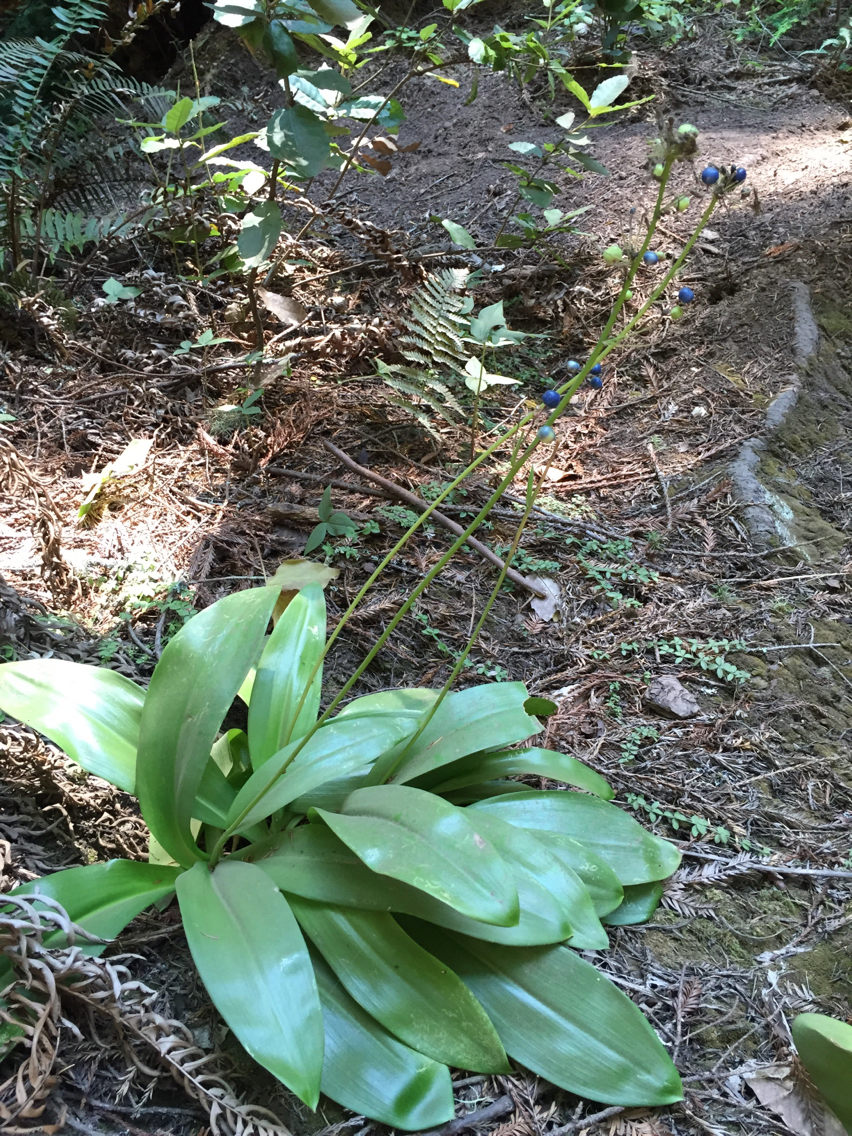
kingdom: Plantae
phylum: Tracheophyta
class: Liliopsida
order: Liliales
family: Liliaceae
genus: Clintonia
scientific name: Clintonia andrewsiana
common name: Red clintonia
